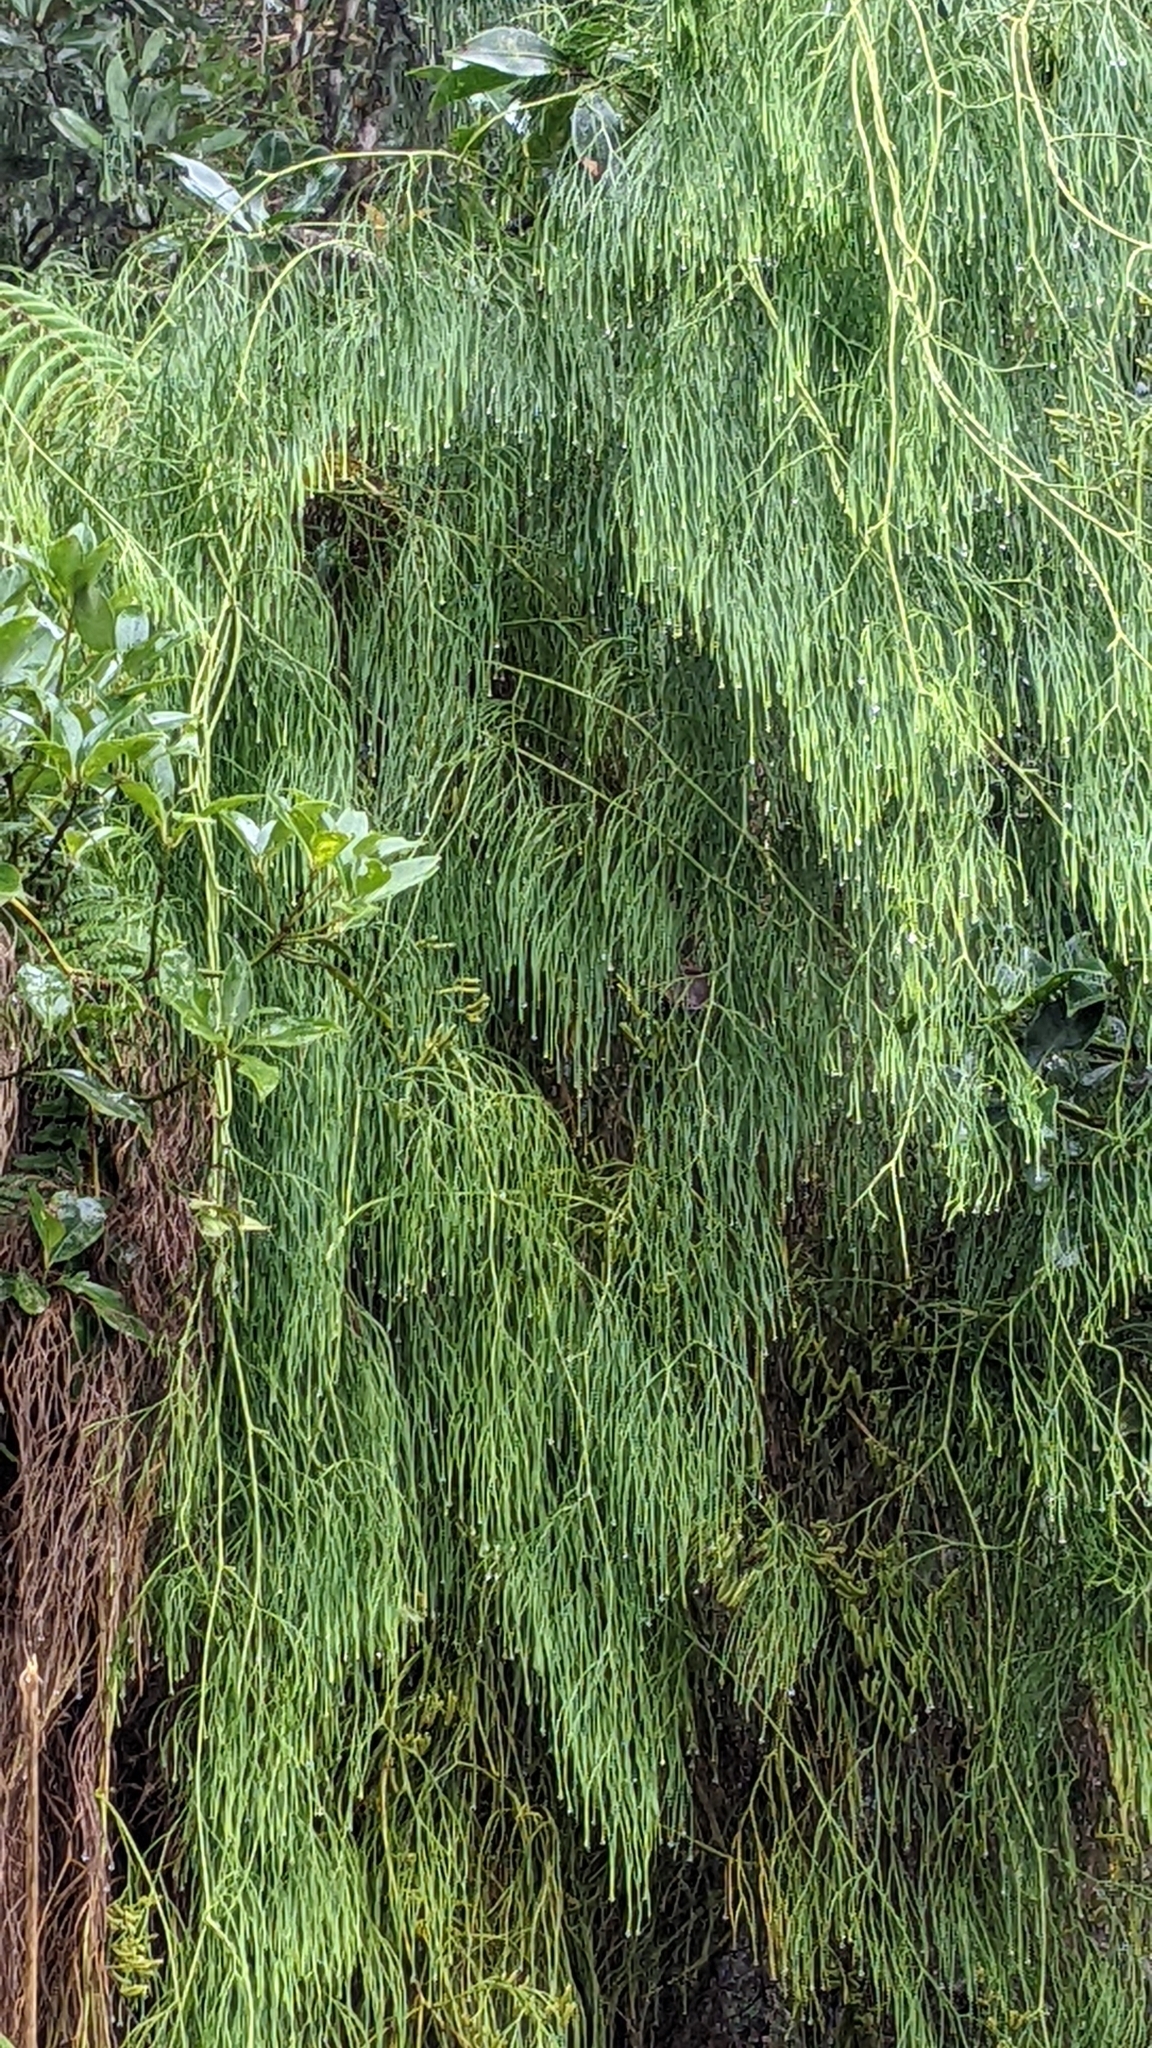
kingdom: Plantae
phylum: Tracheophyta
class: Lycopodiopsida
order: Lycopodiales
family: Lycopodiaceae
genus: Lycopodiastrum
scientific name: Lycopodiastrum casuarinoides
